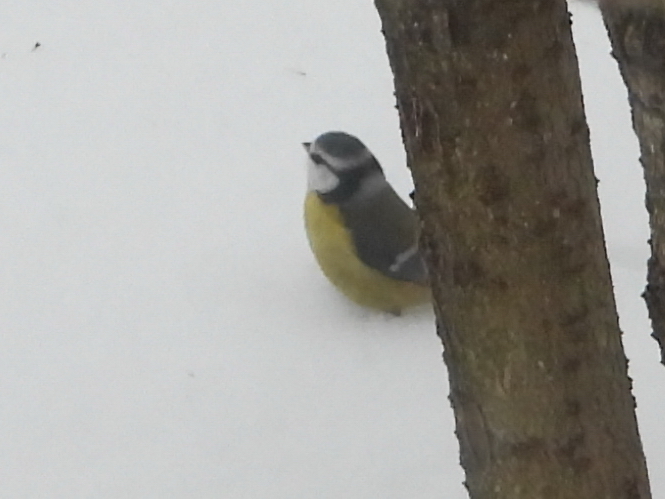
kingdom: Animalia
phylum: Chordata
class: Aves
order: Passeriformes
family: Paridae
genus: Cyanistes
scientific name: Cyanistes caeruleus
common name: Eurasian blue tit
